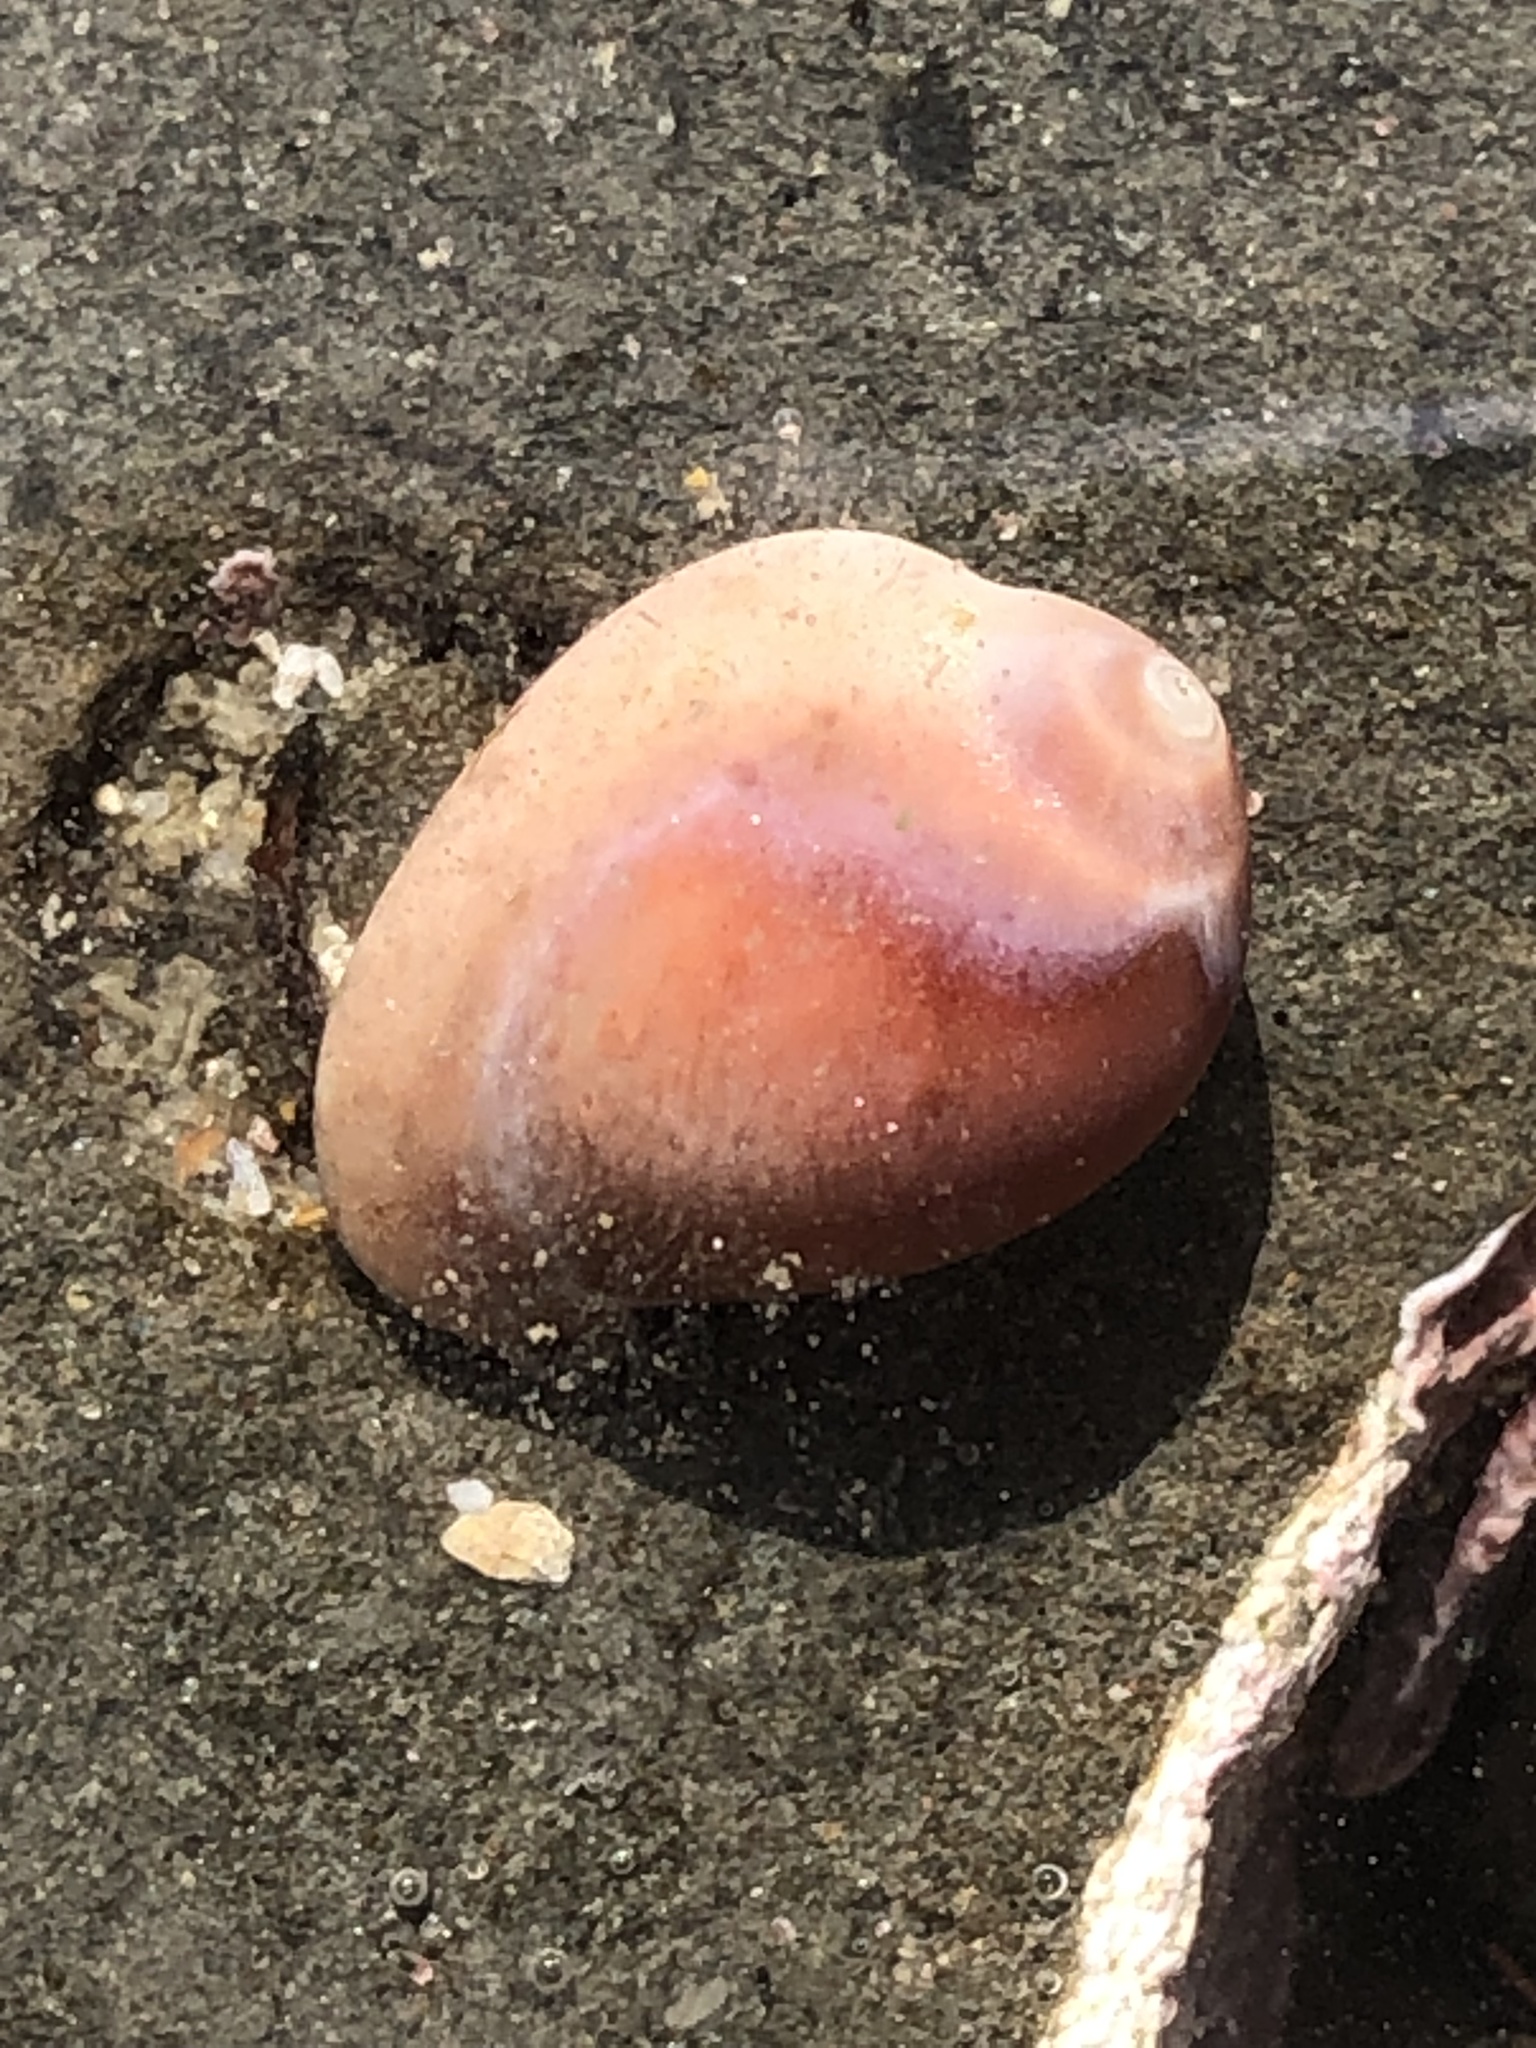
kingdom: Animalia
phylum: Mollusca
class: Gastropoda
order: Littorinimorpha
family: Eratoidae
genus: Hespererato
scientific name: Hespererato vitellina
